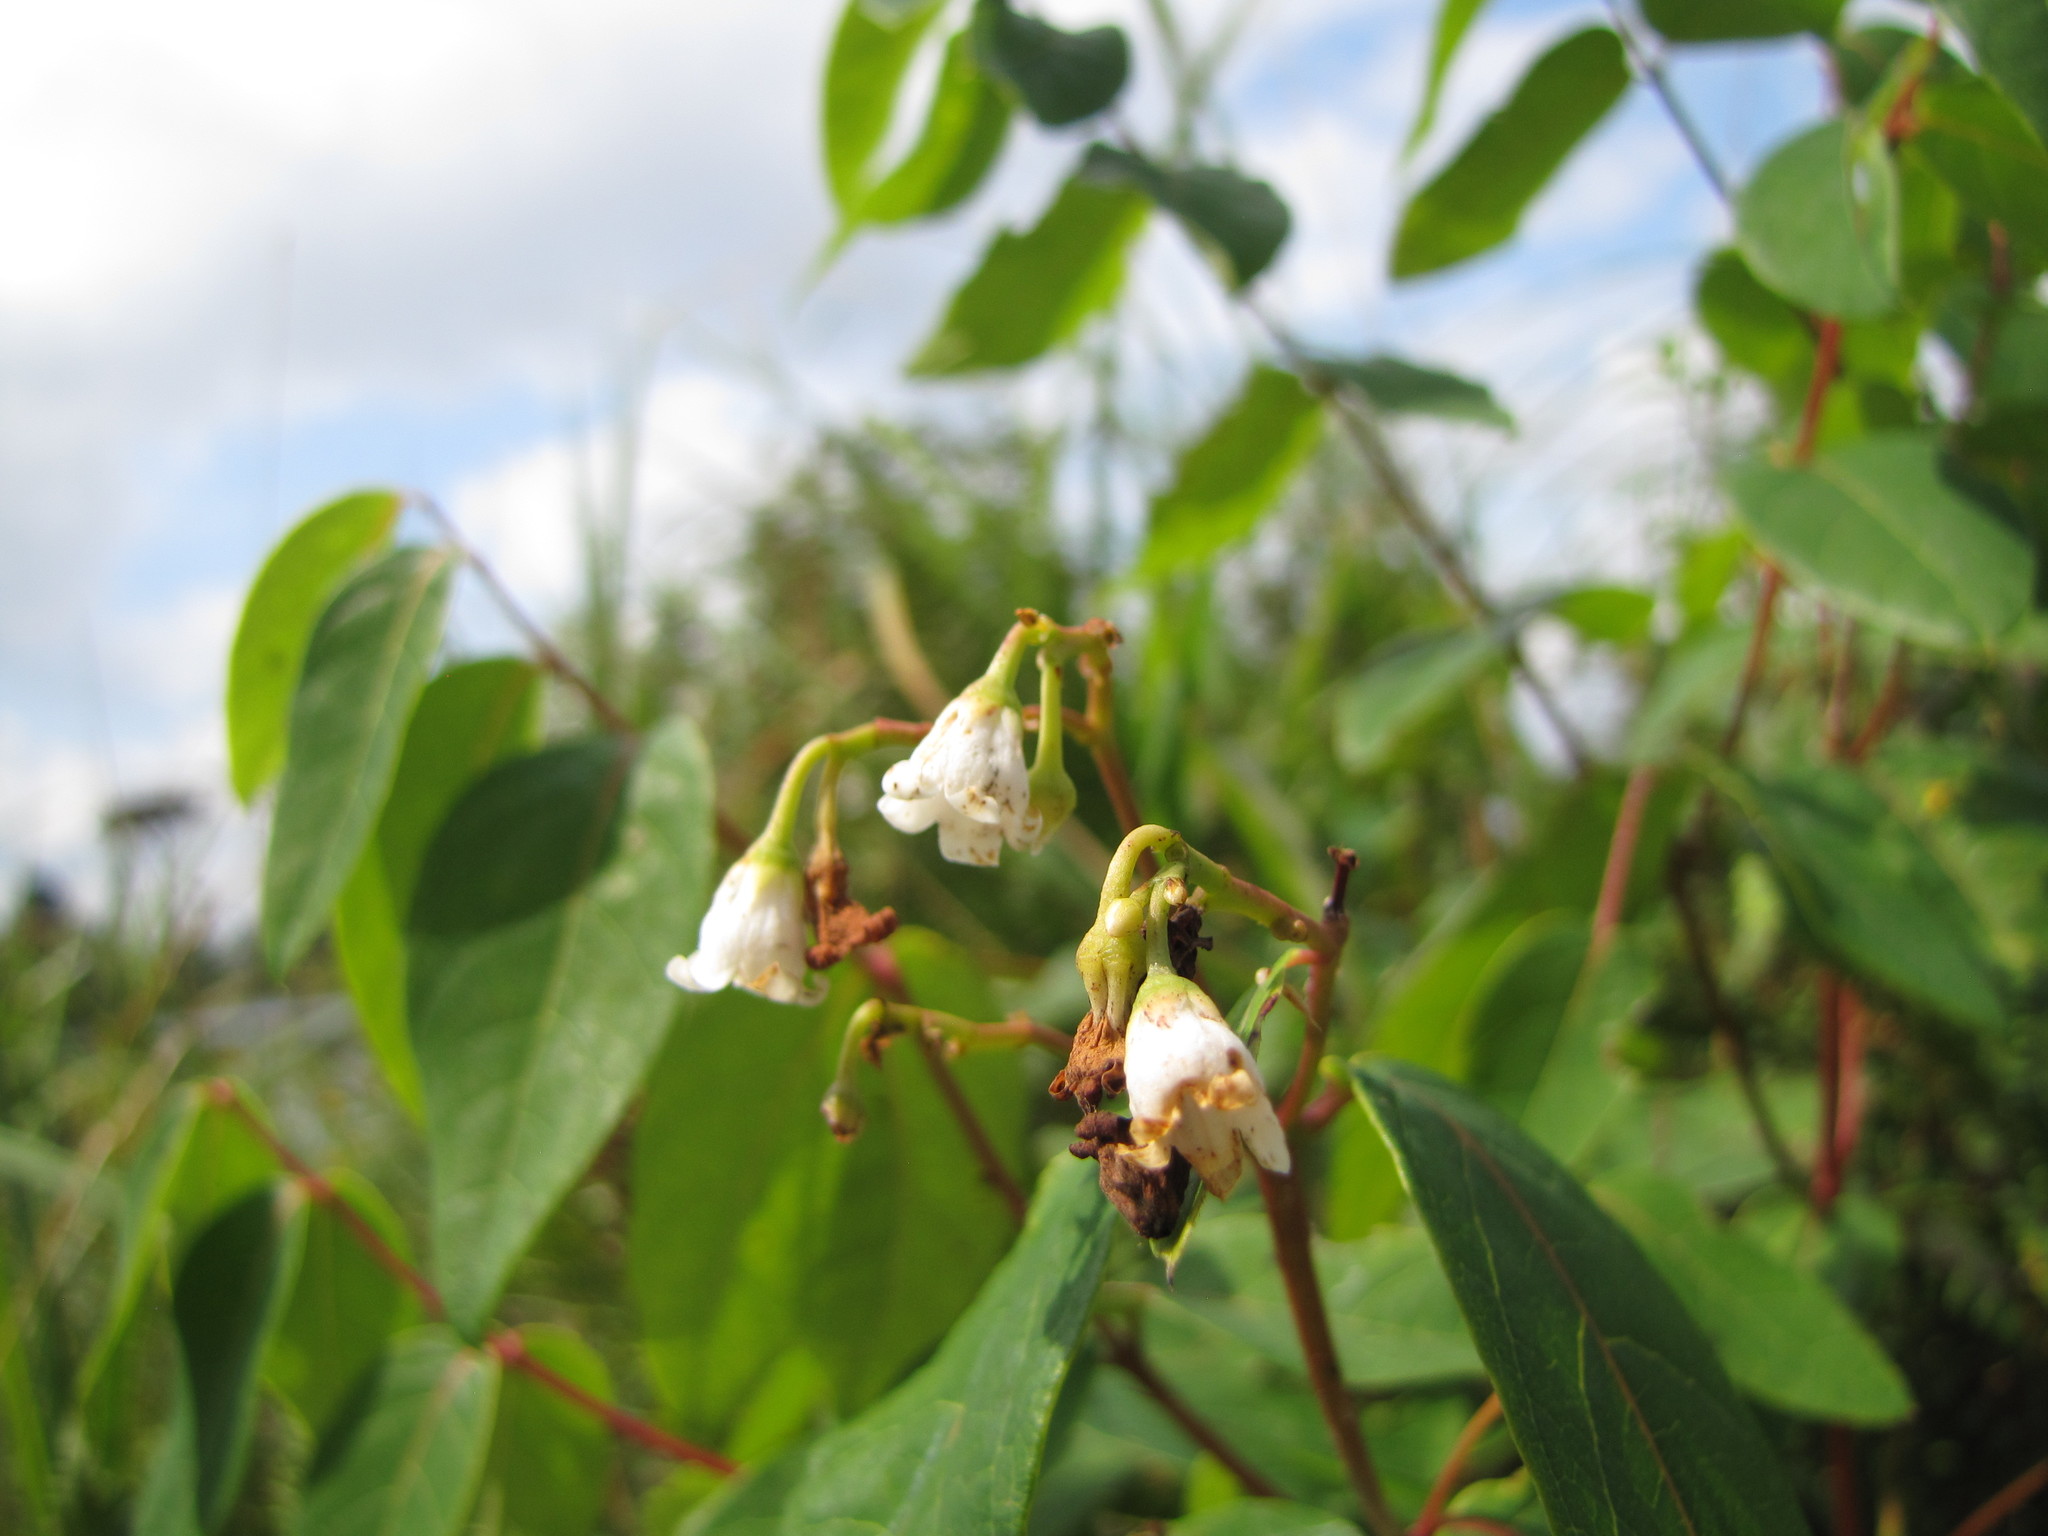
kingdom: Plantae
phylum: Tracheophyta
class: Magnoliopsida
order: Gentianales
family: Apocynaceae
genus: Apocynum
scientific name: Apocynum androsaemifolium
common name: Spreading dogbane
